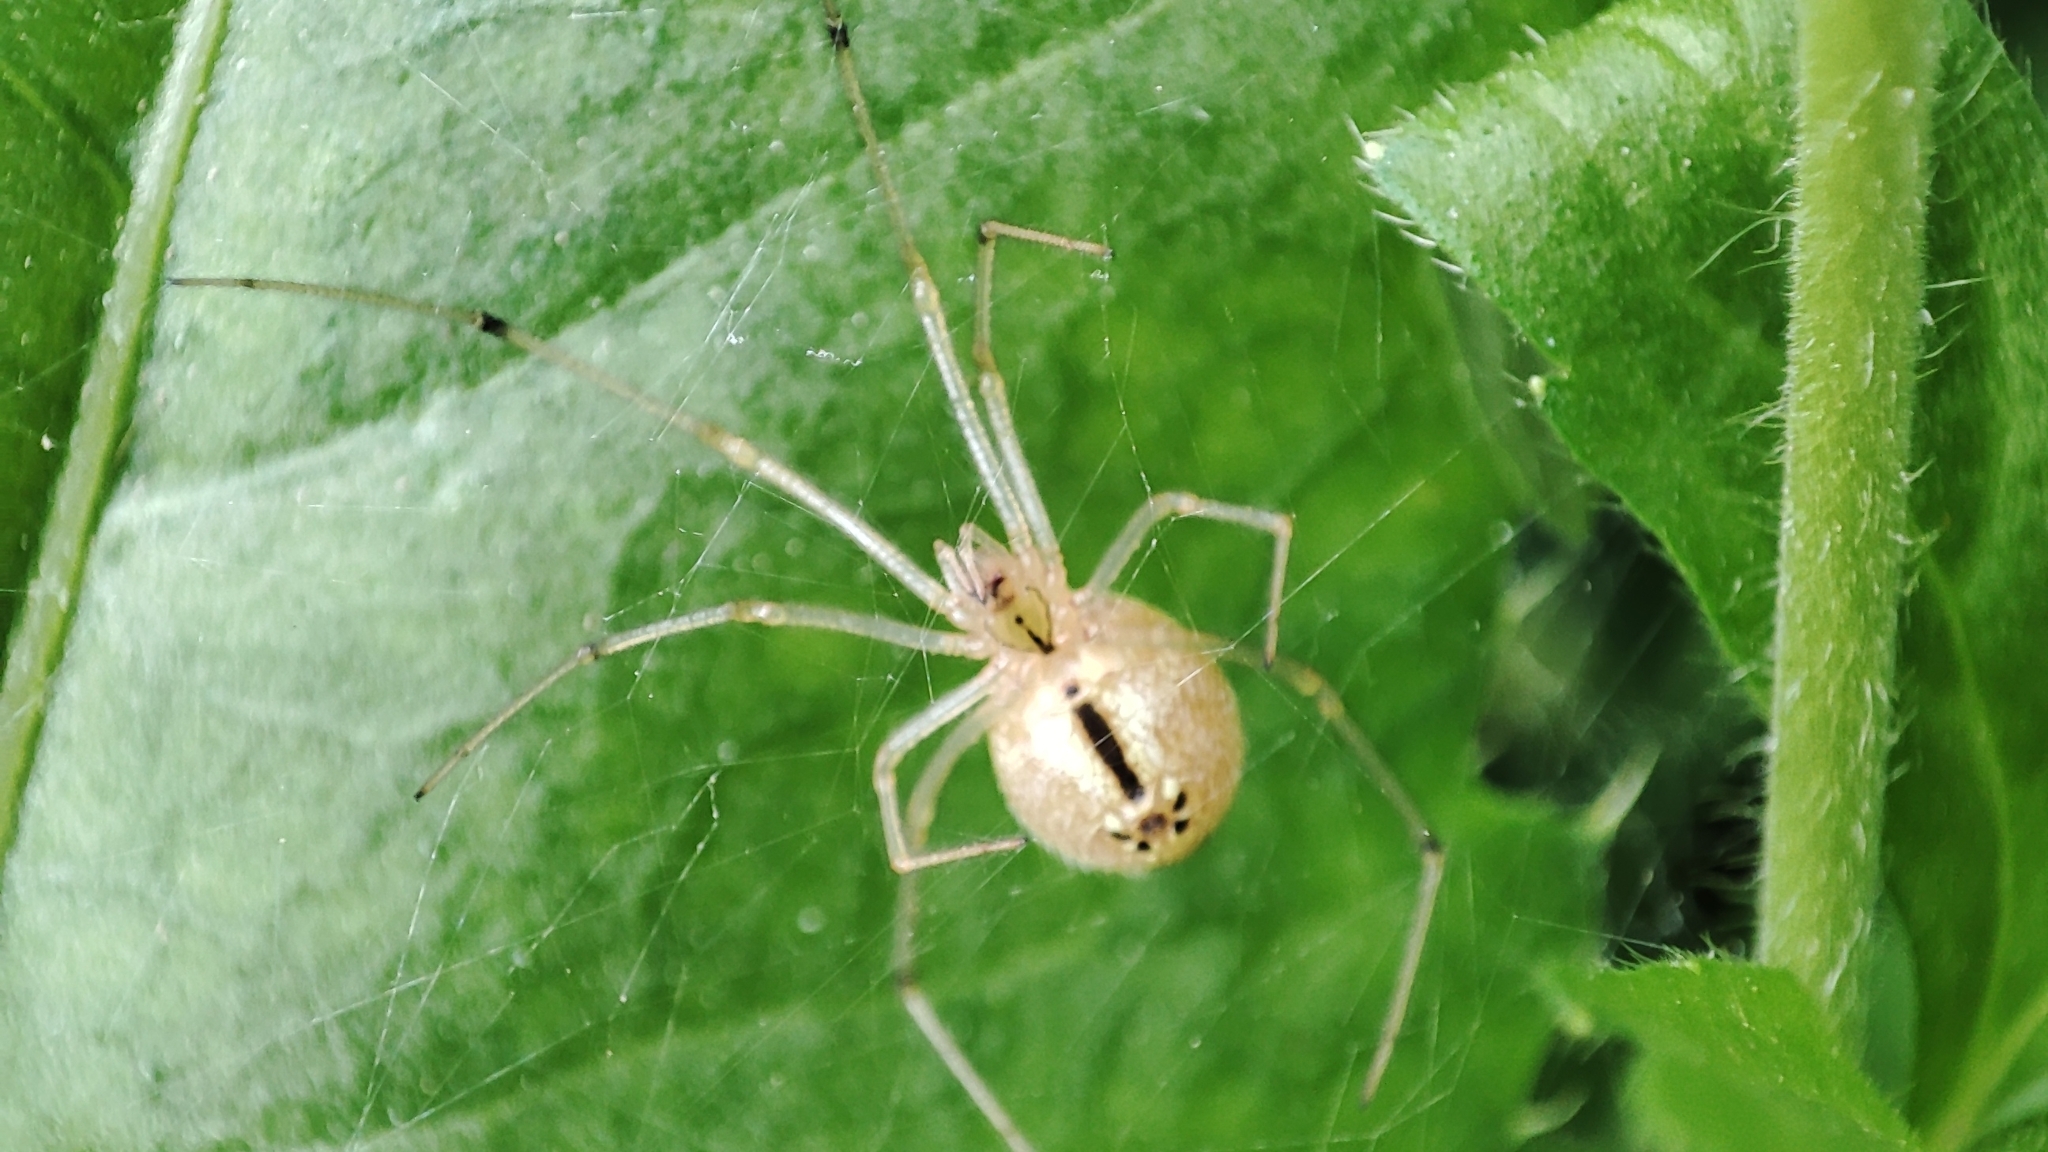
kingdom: Animalia
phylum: Arthropoda
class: Arachnida
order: Araneae
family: Theridiidae
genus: Enoplognatha
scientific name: Enoplognatha ovata
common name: Common candy-striped spider
